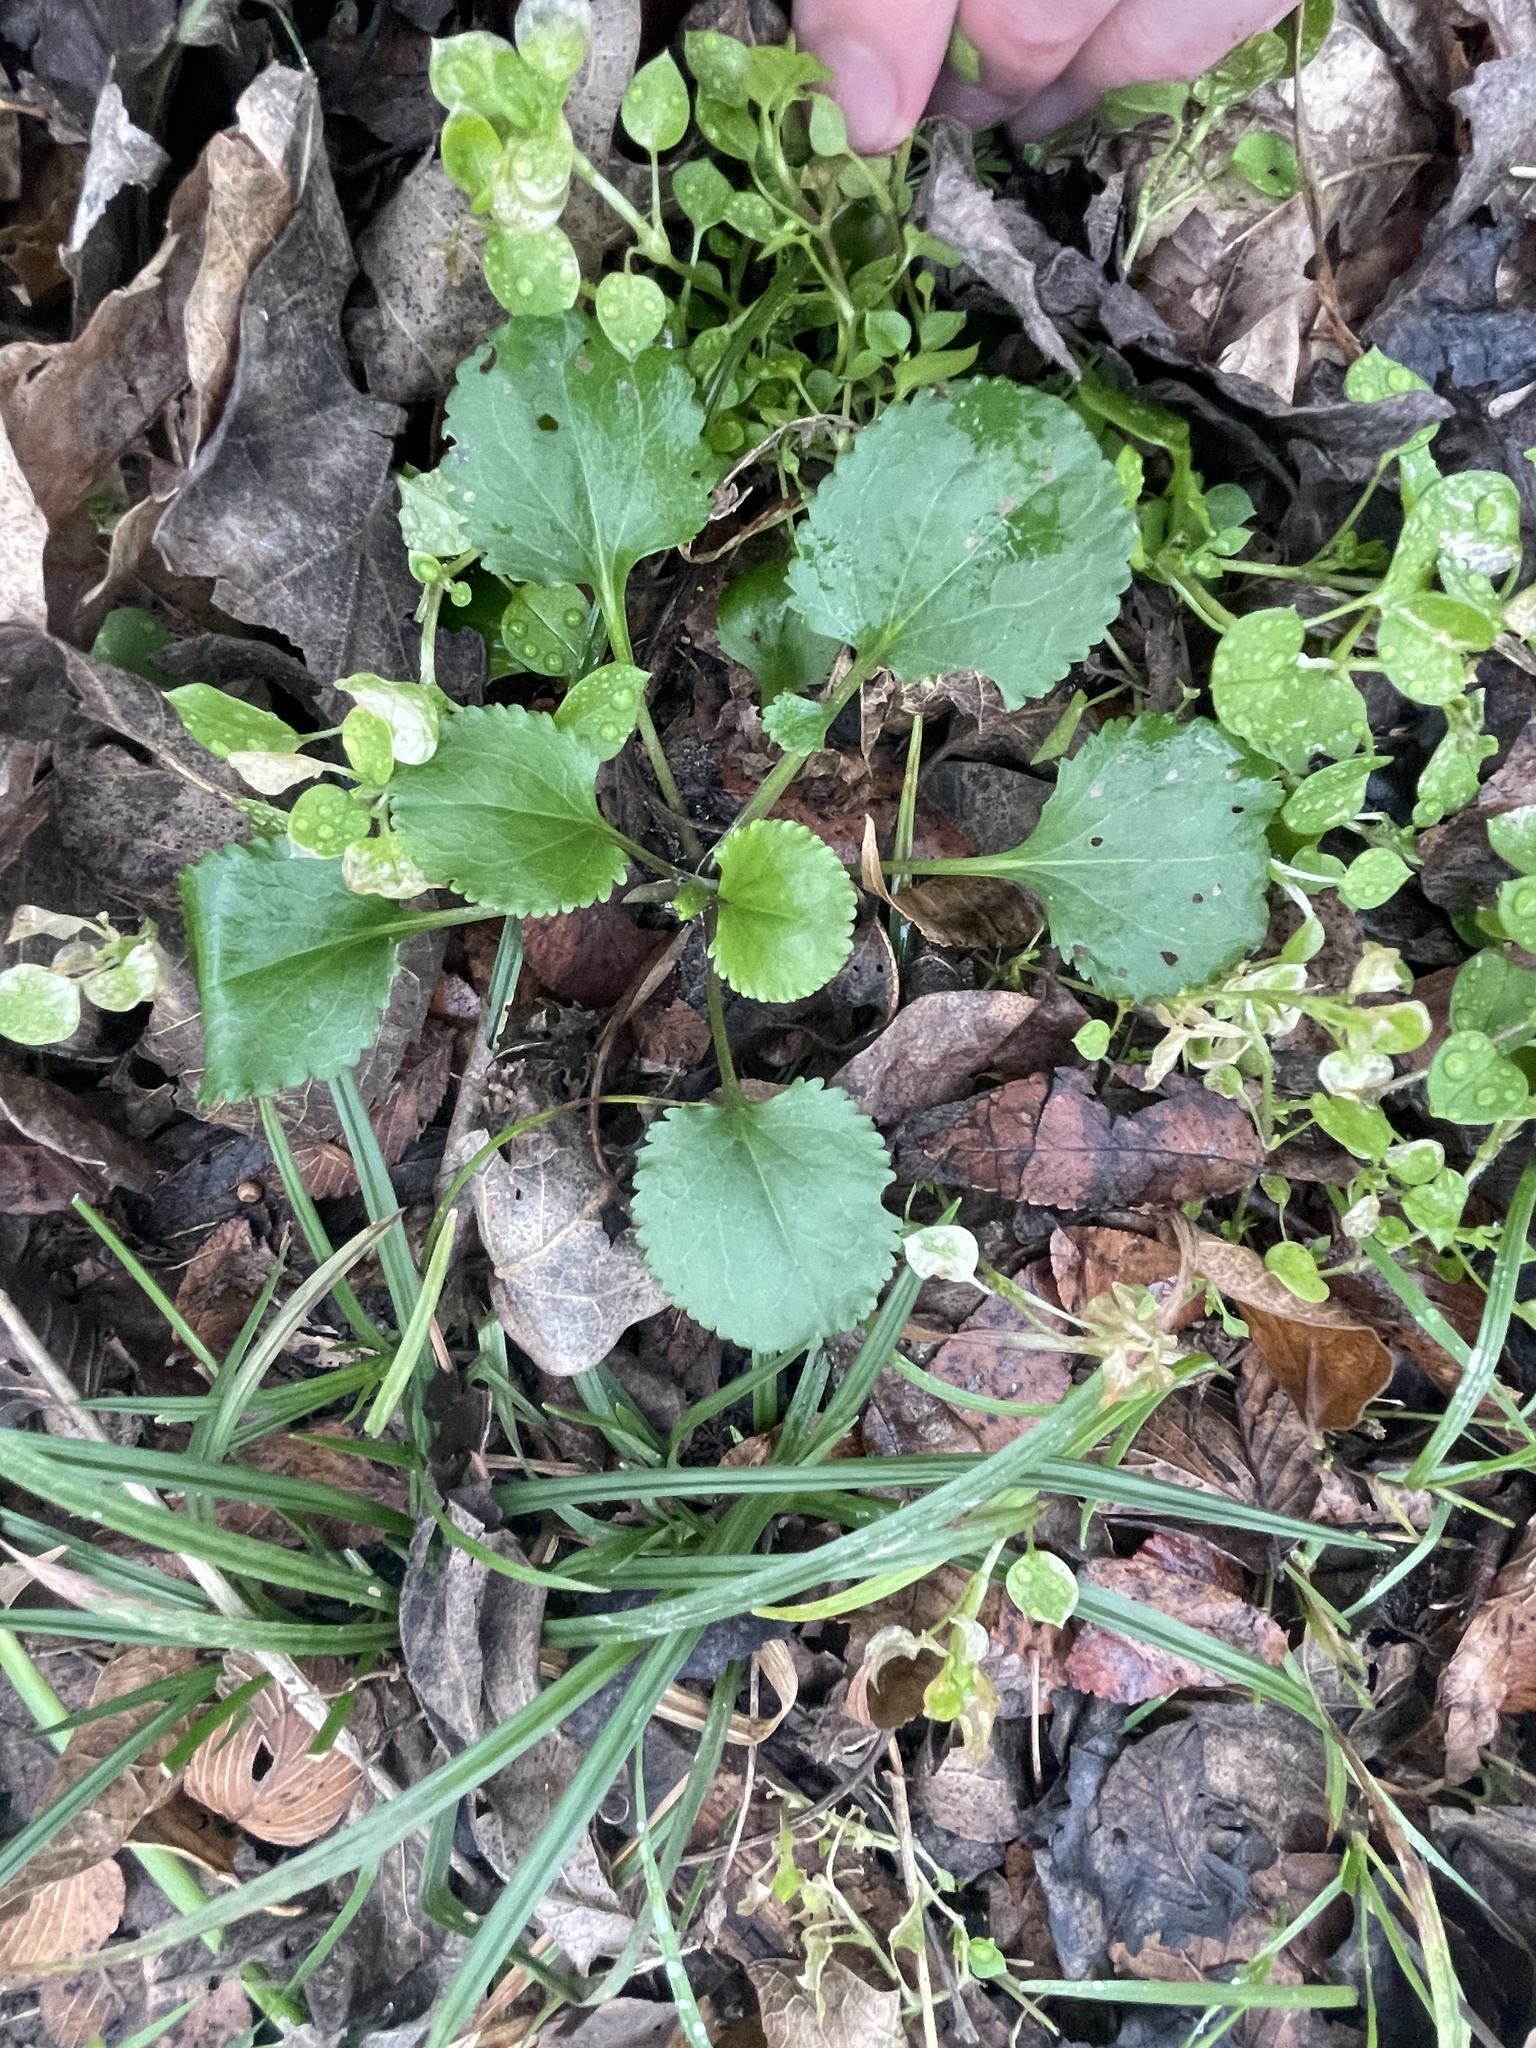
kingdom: Plantae
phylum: Tracheophyta
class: Magnoliopsida
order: Asterales
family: Asteraceae
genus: Packera
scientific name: Packera obovata
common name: Round-leaf ragwort
